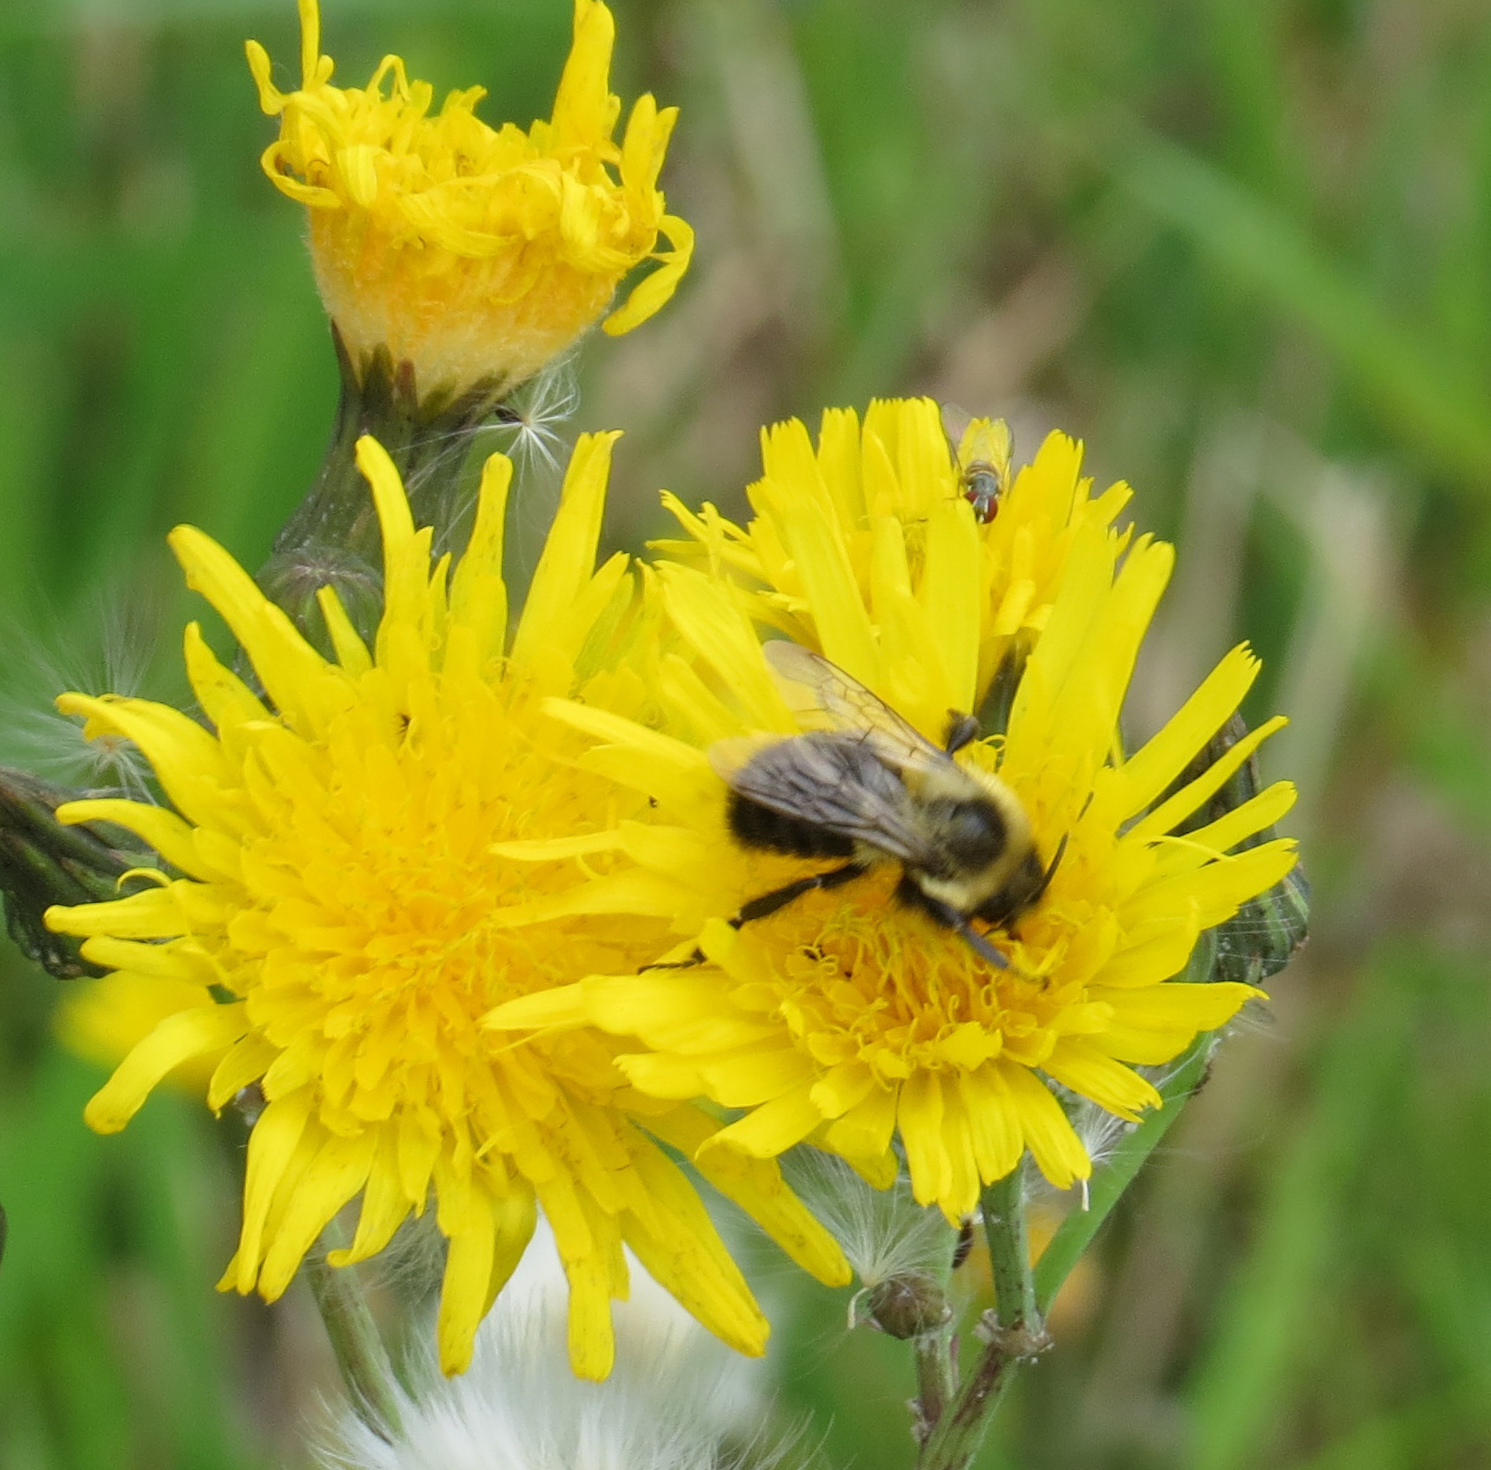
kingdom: Animalia
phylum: Arthropoda
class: Insecta
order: Hymenoptera
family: Apidae
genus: Bombus
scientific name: Bombus impatiens
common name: Common eastern bumble bee
